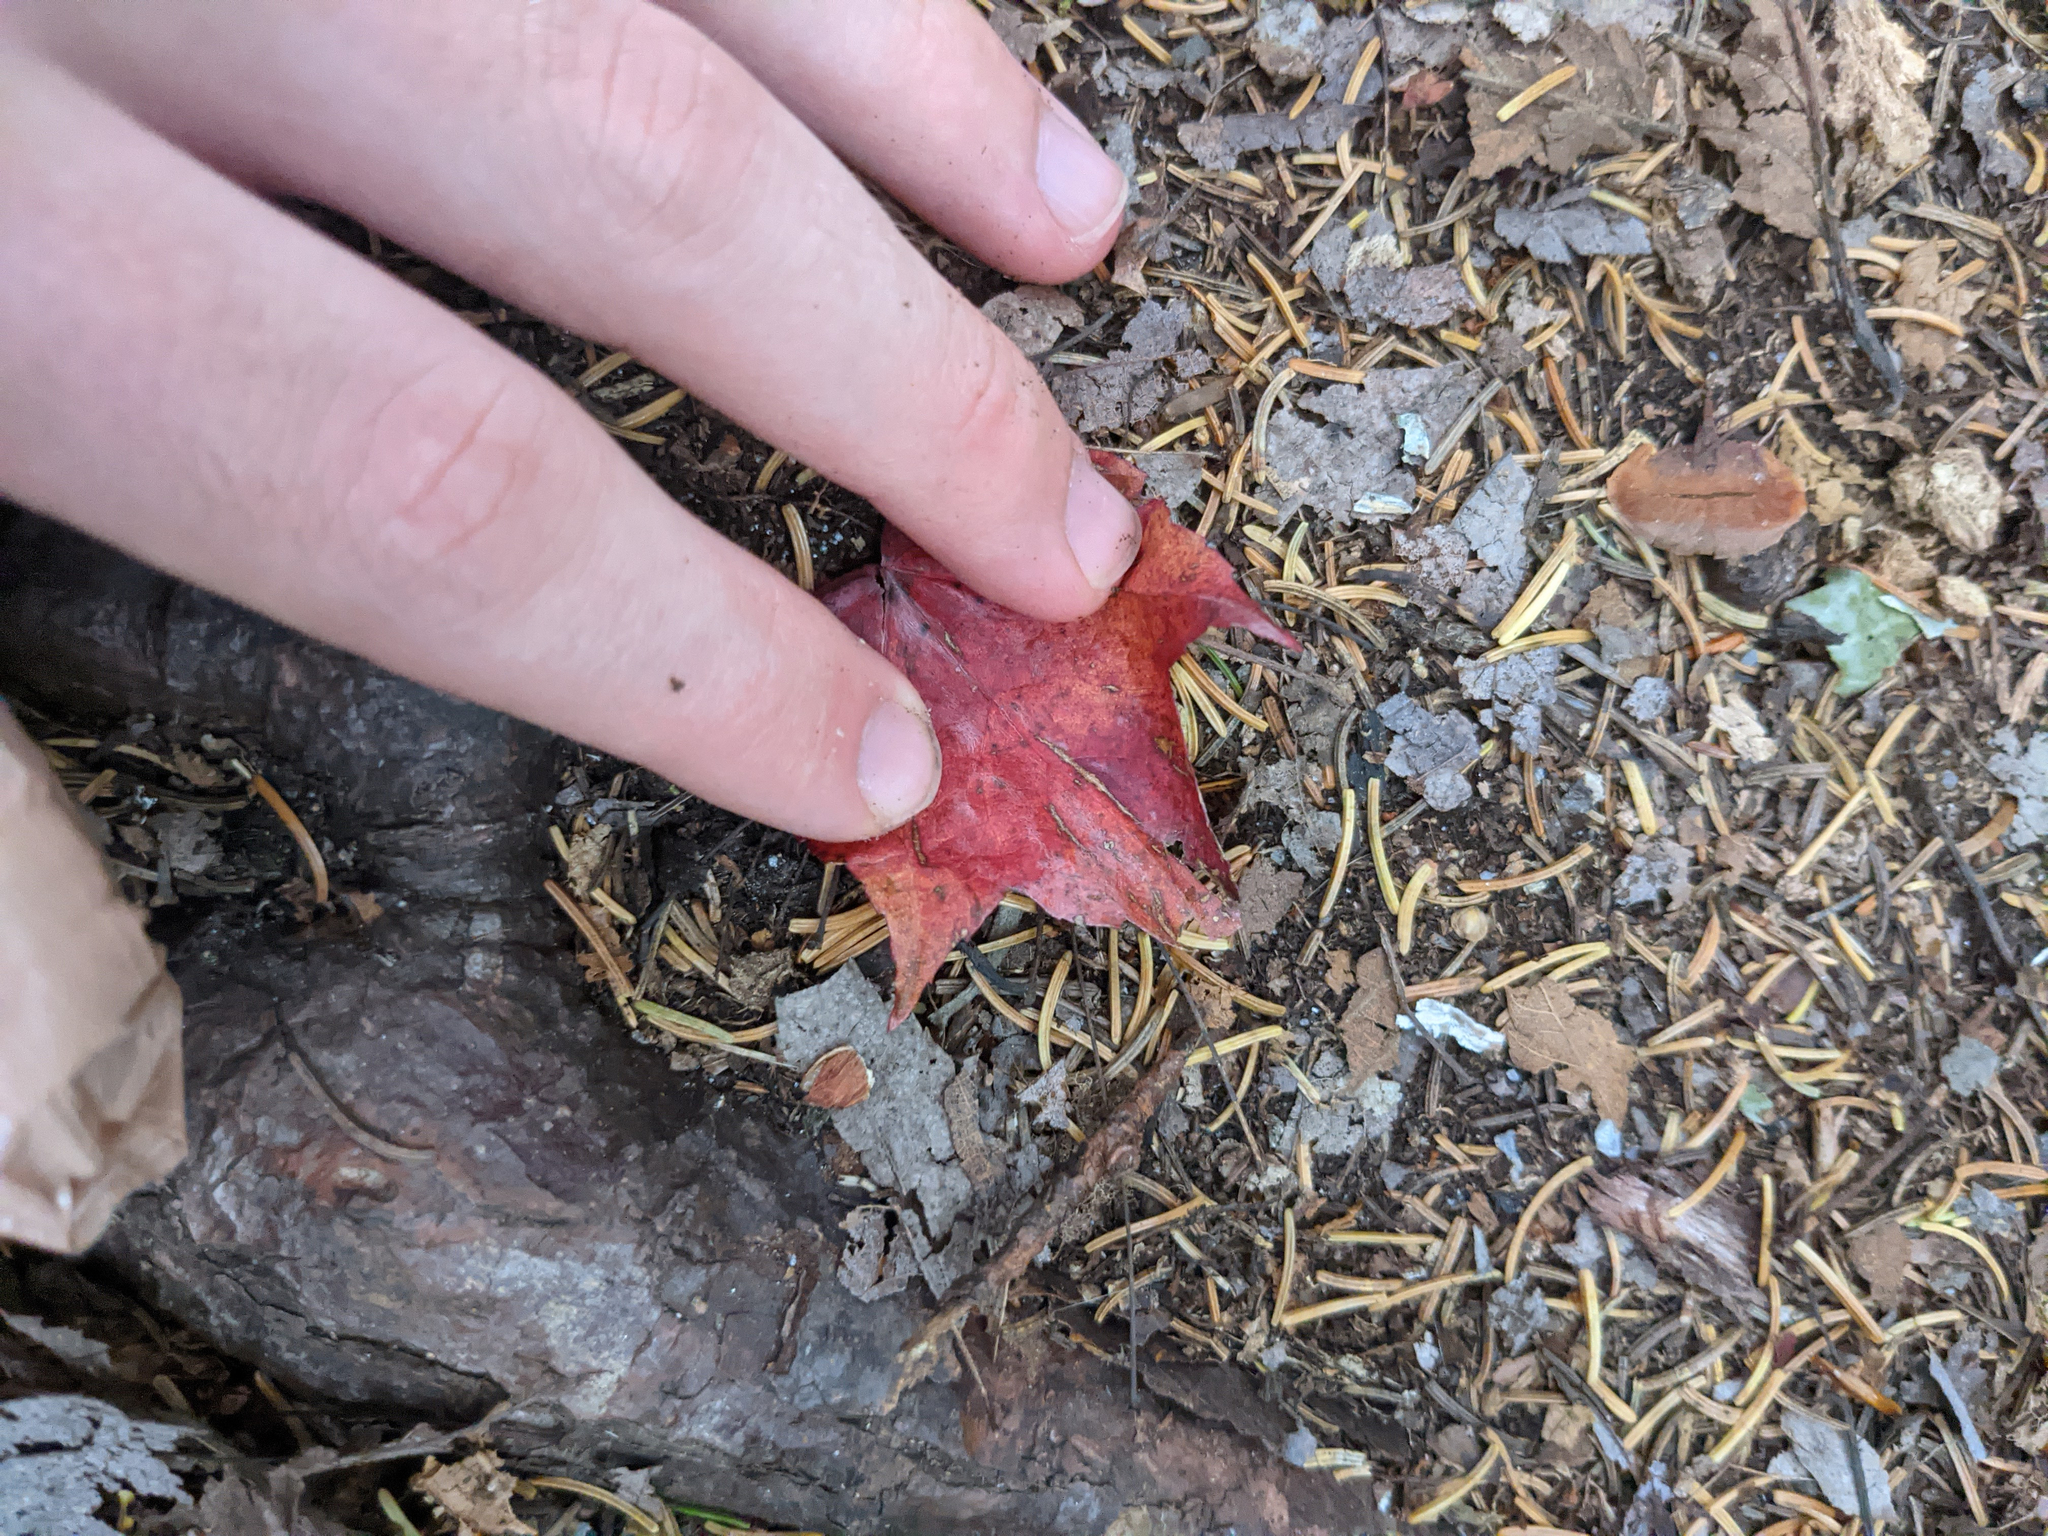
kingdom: Plantae
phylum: Tracheophyta
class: Magnoliopsida
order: Sapindales
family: Sapindaceae
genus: Acer
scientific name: Acer rubrum
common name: Red maple
